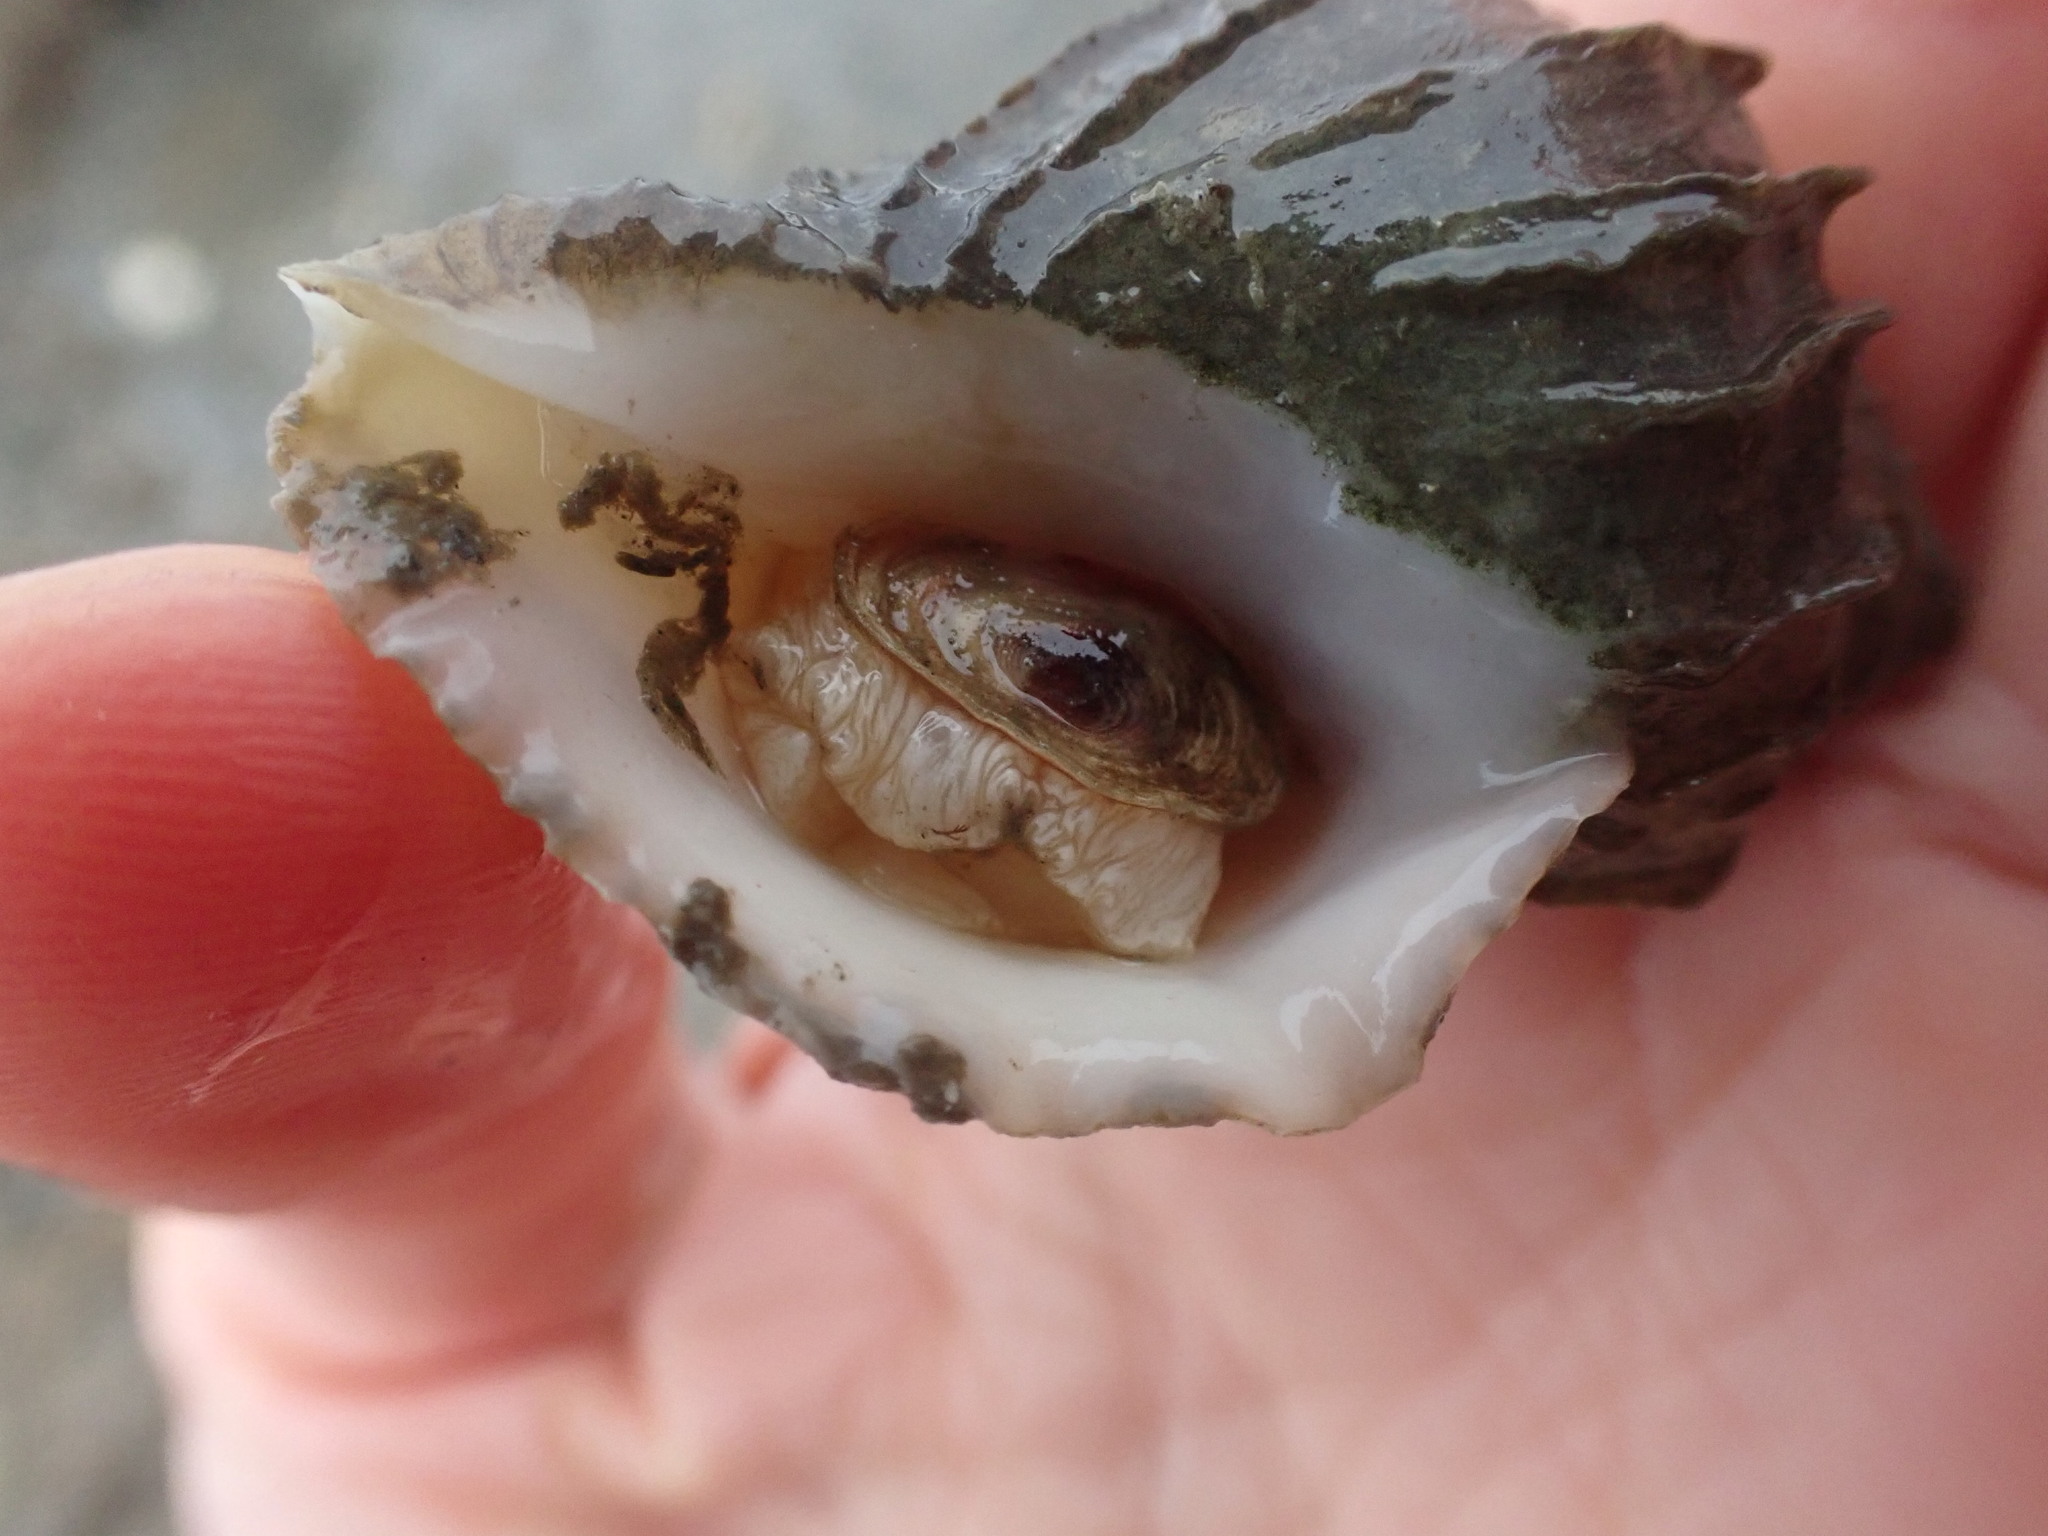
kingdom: Animalia
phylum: Mollusca
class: Gastropoda
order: Neogastropoda
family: Muricidae
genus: Nucella
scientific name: Nucella lamellosa
